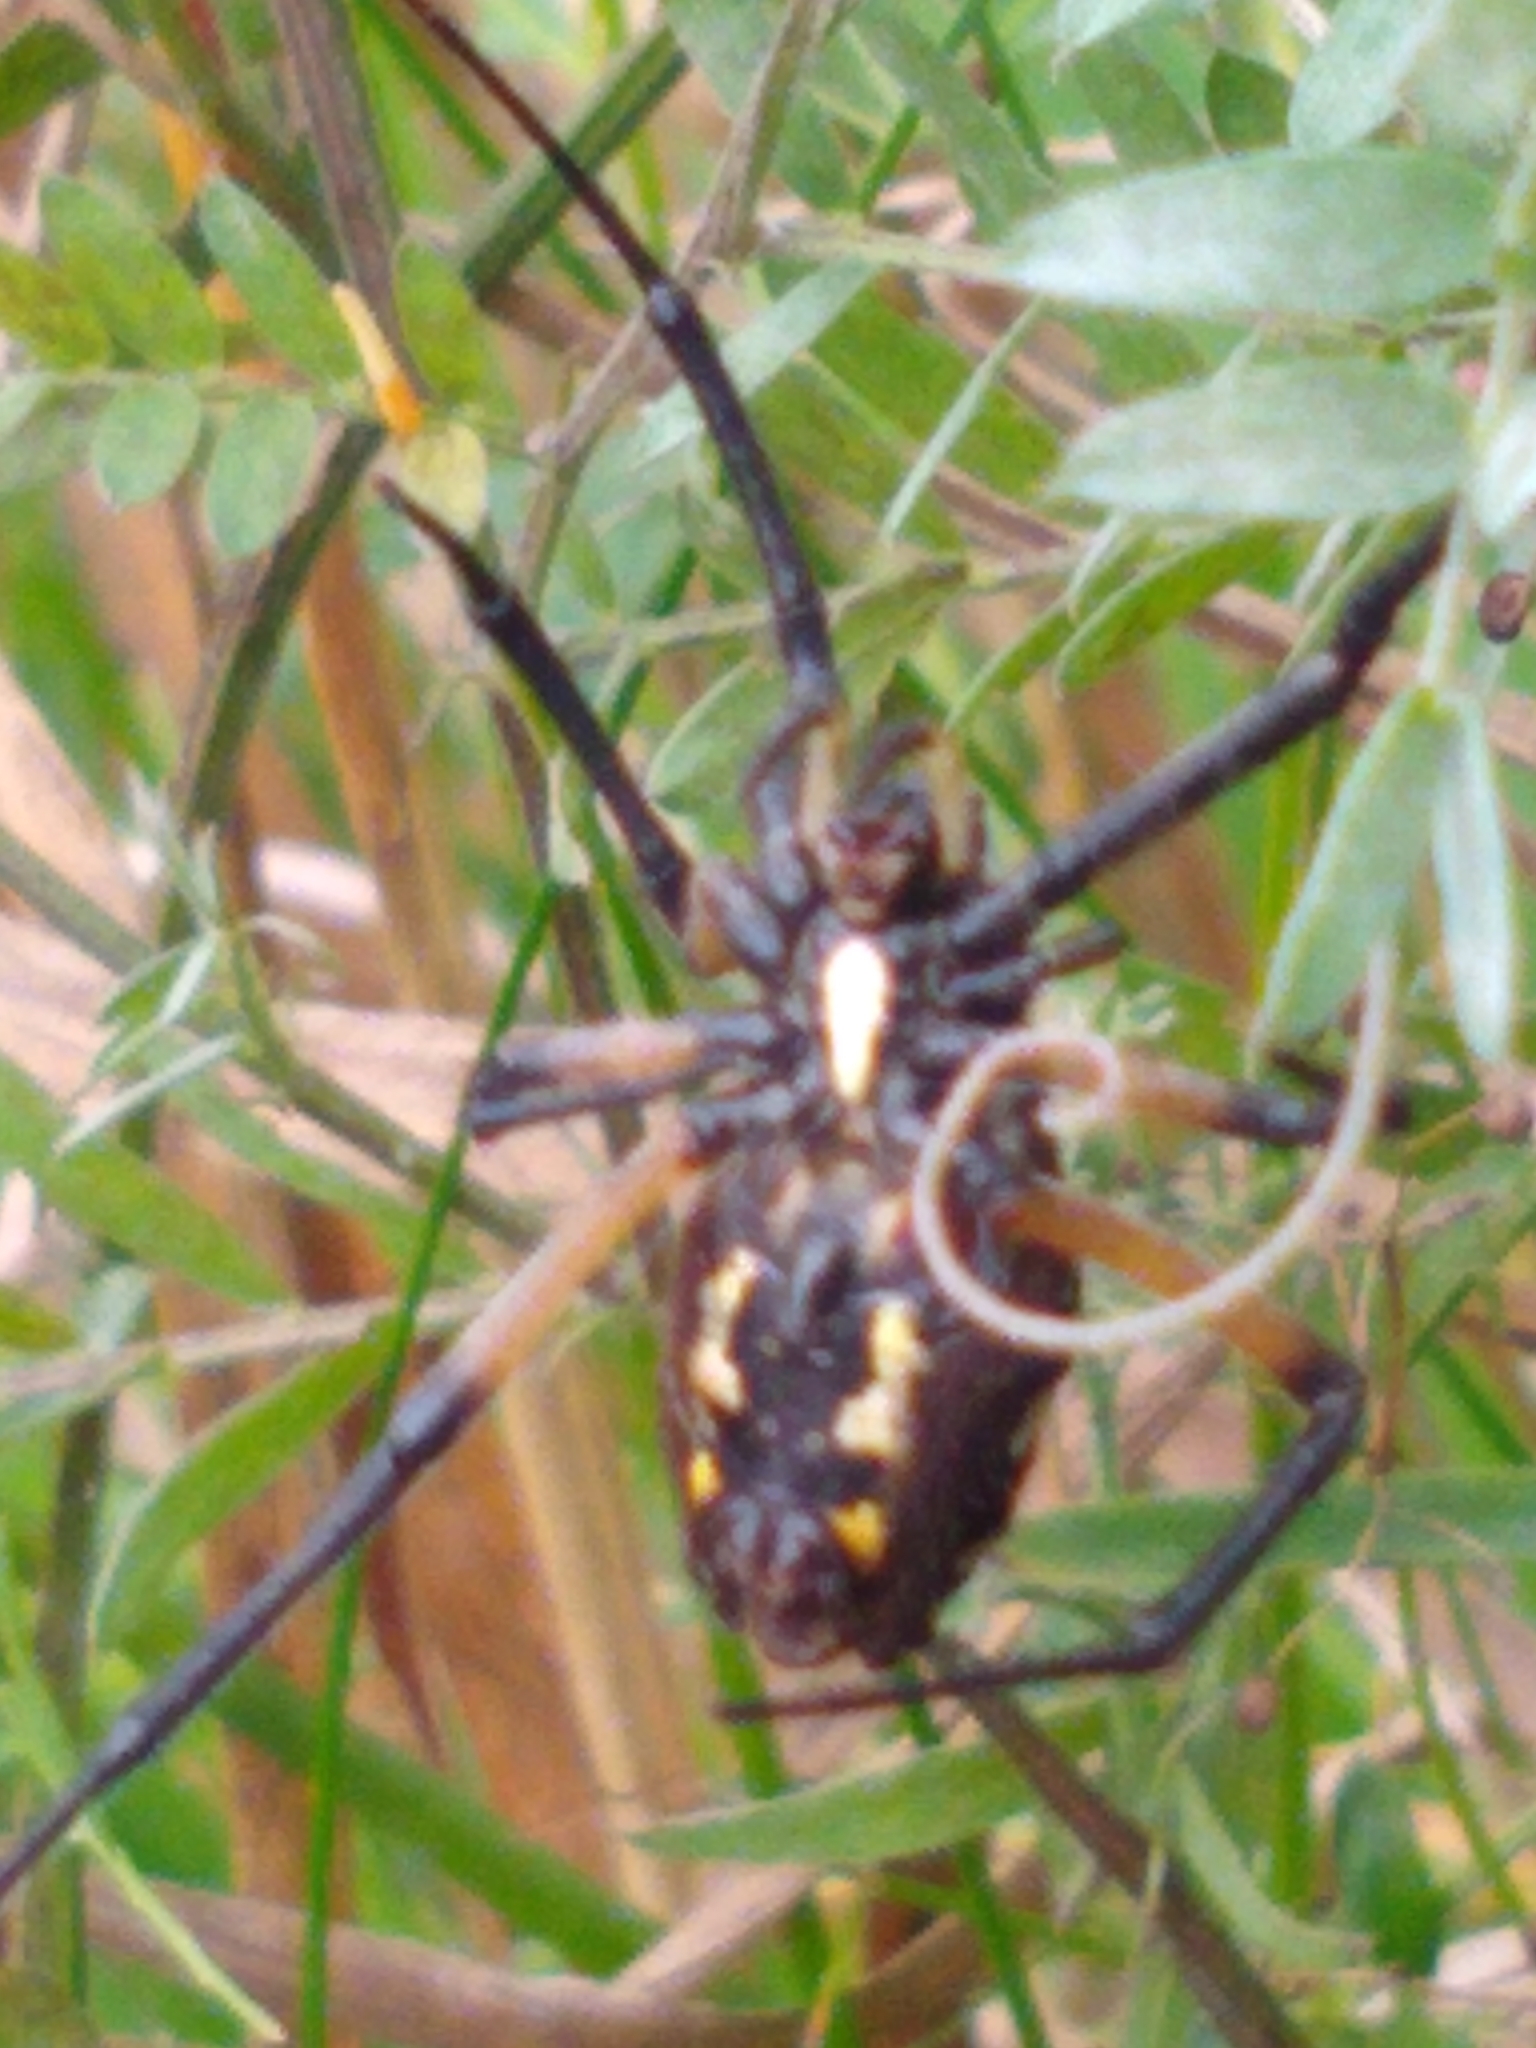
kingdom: Animalia
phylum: Arthropoda
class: Arachnida
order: Araneae
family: Araneidae
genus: Argiope
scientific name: Argiope aurantia
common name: Orb weavers
